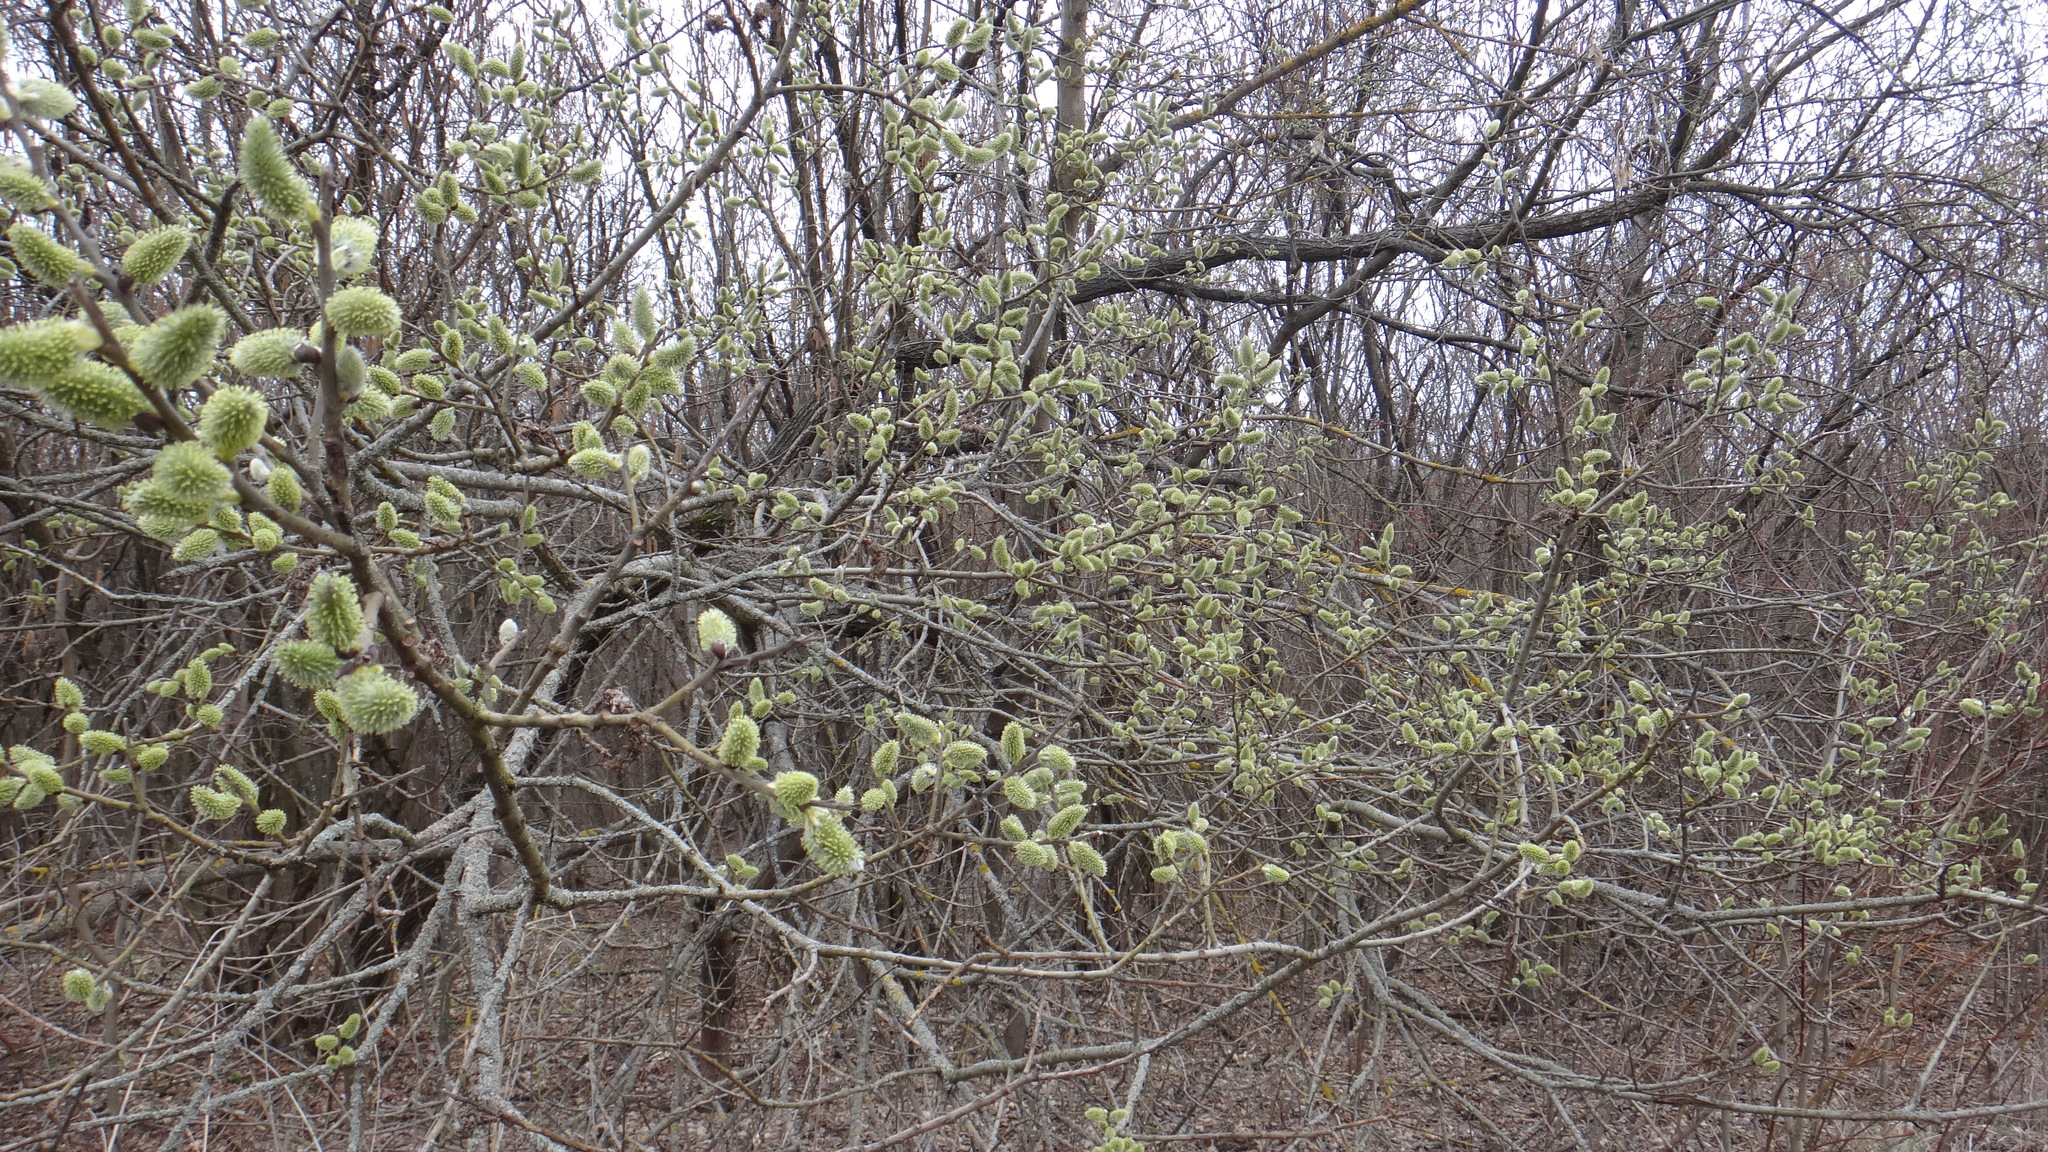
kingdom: Plantae
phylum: Tracheophyta
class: Magnoliopsida
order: Malpighiales
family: Salicaceae
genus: Salix
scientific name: Salix caprea
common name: Goat willow
